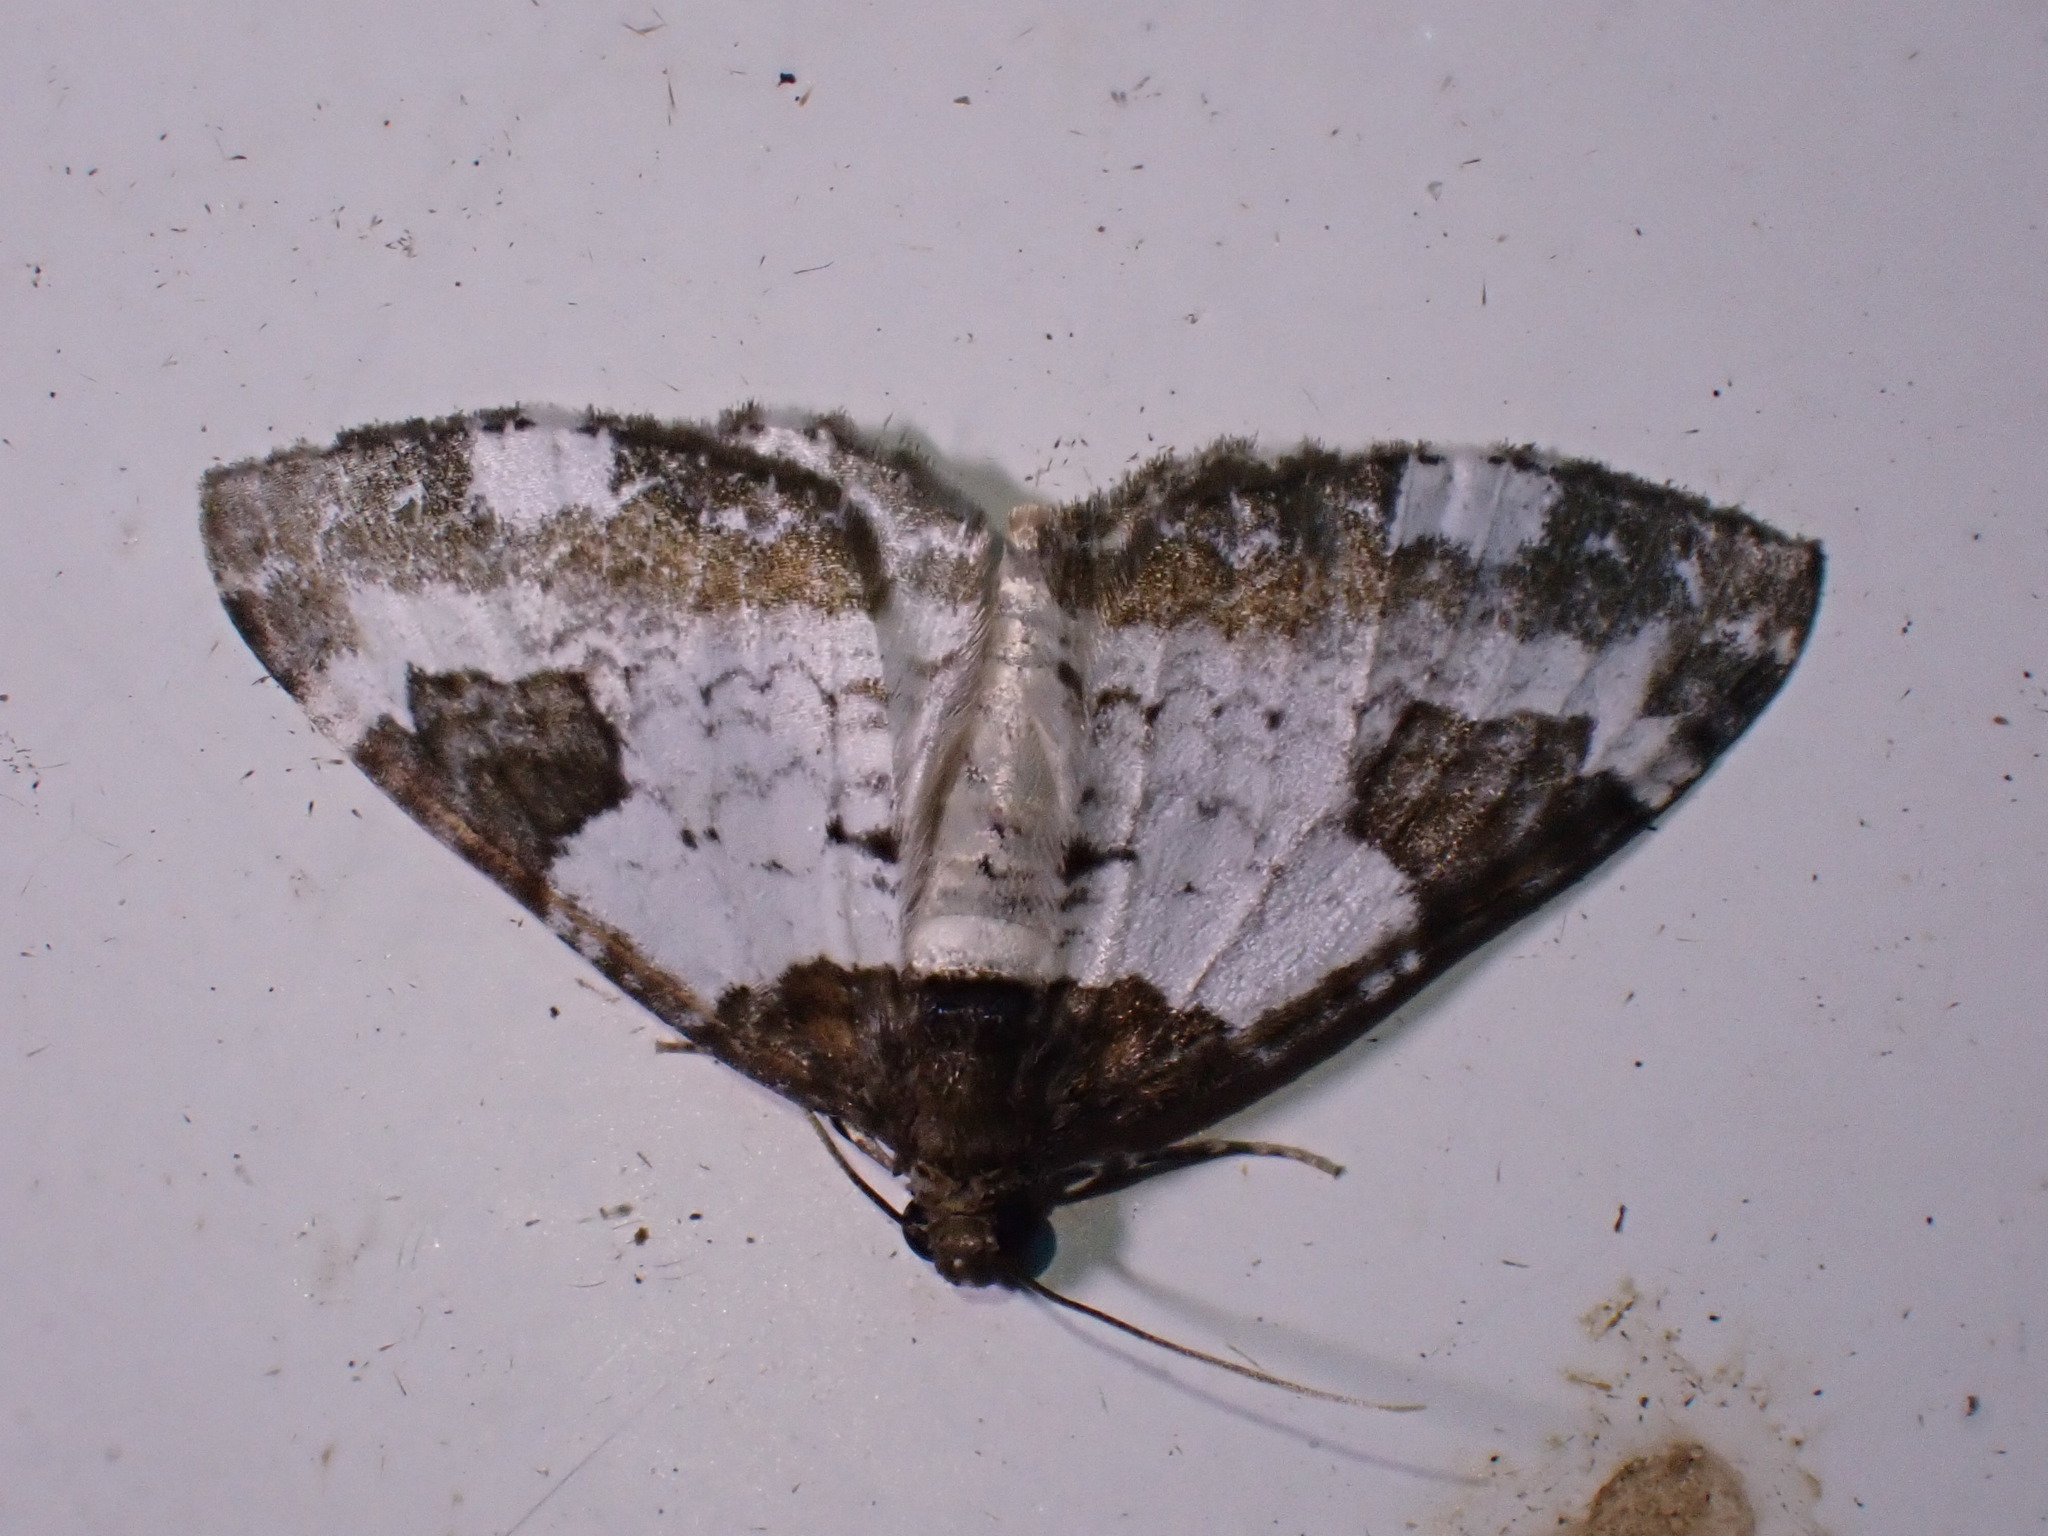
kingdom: Animalia
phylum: Arthropoda
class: Insecta
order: Lepidoptera
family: Geometridae
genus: Melanthia
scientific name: Melanthia procellata
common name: Pretty chalk carpet
